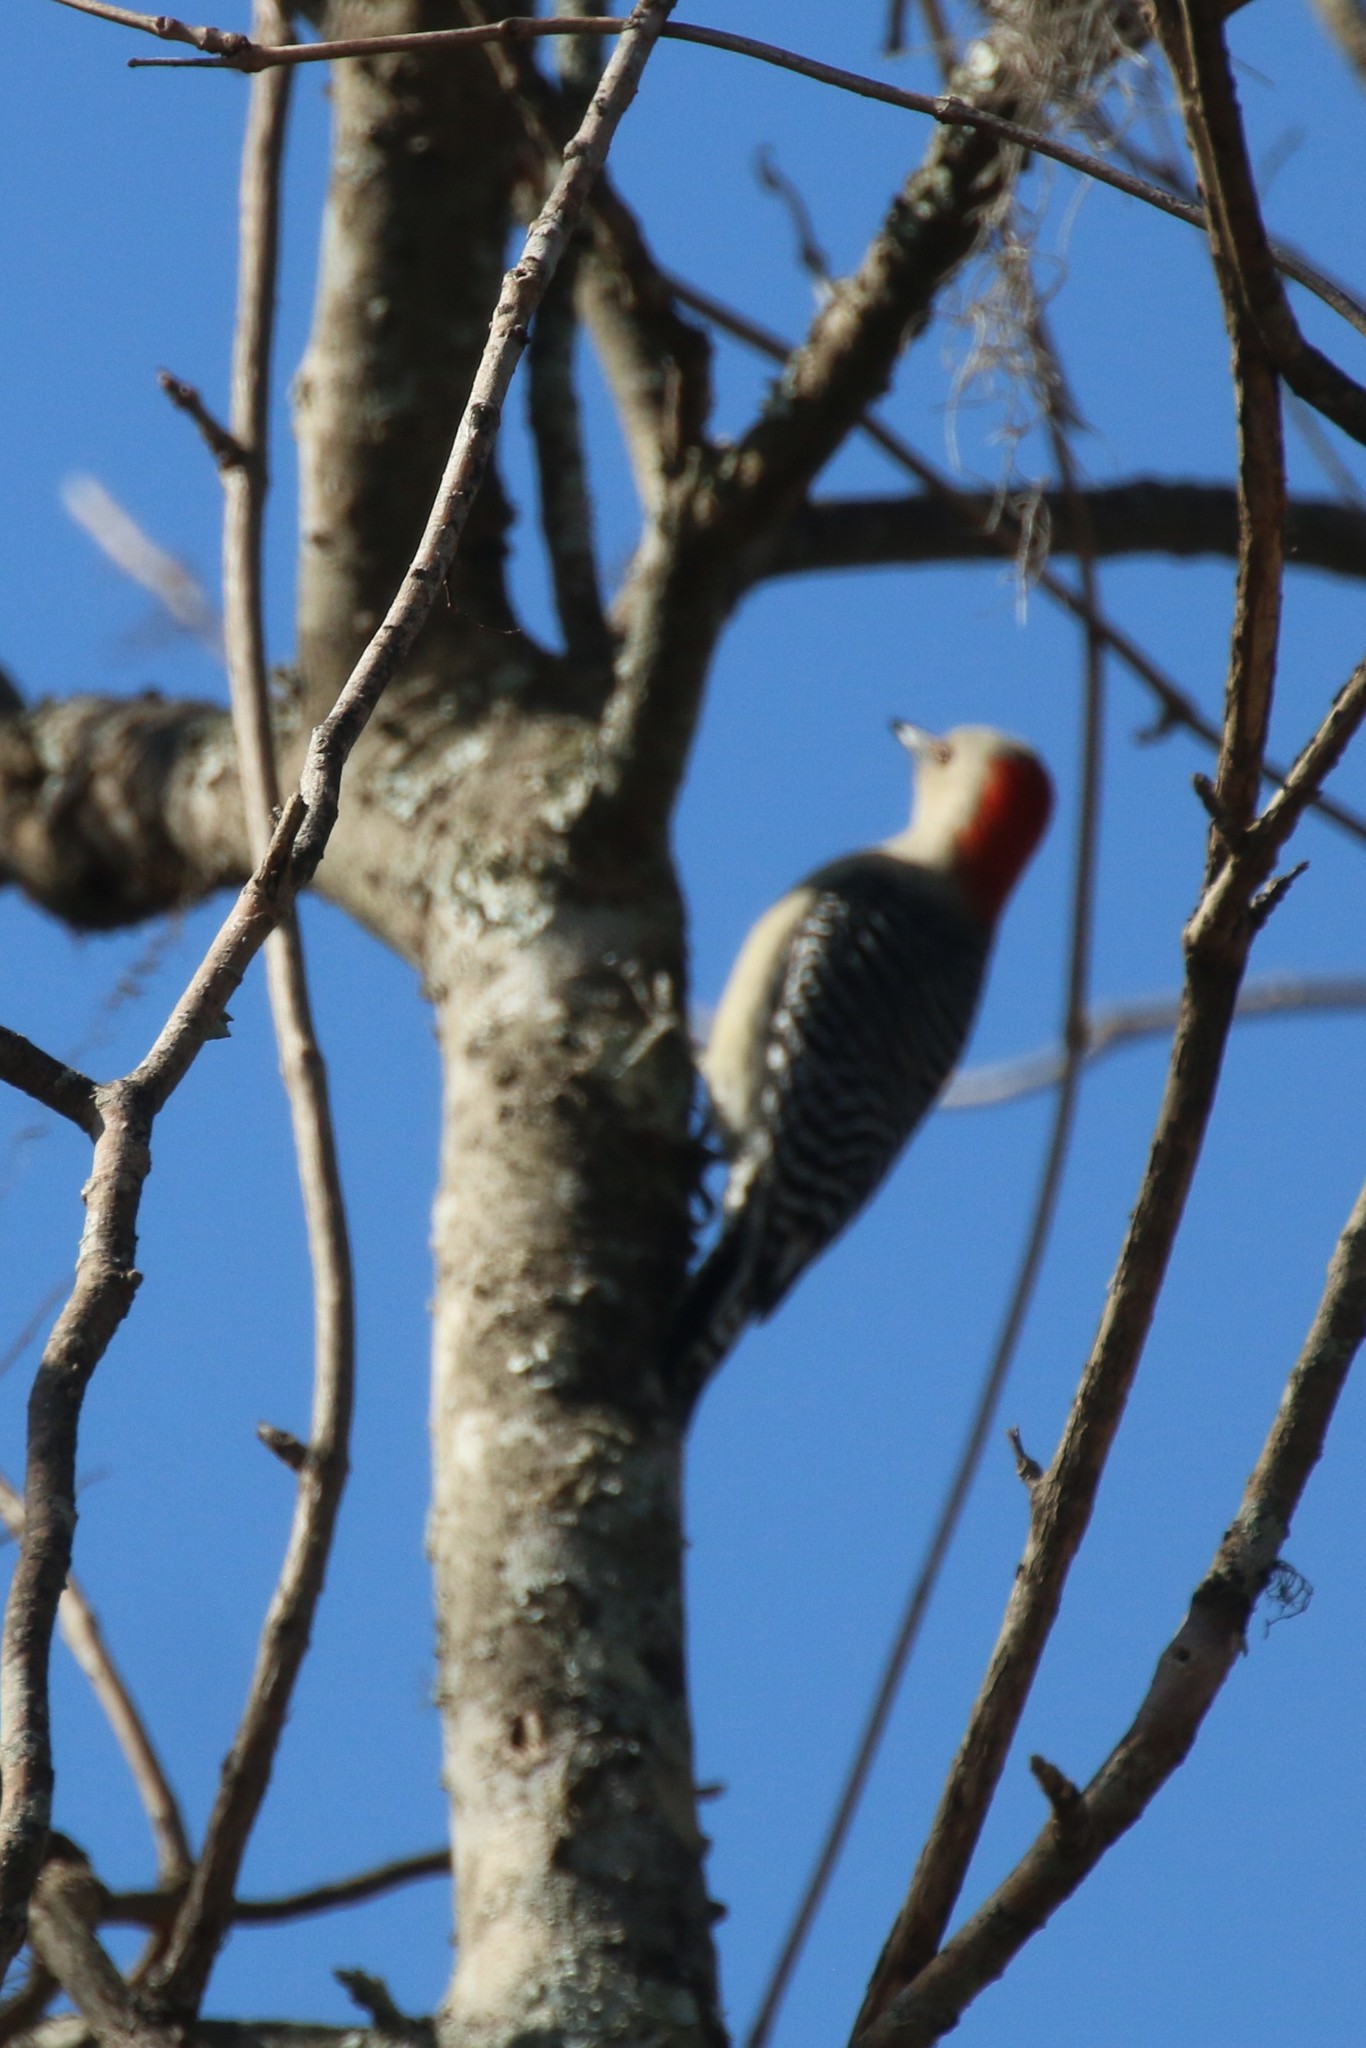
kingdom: Animalia
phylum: Chordata
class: Aves
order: Piciformes
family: Picidae
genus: Melanerpes
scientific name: Melanerpes carolinus
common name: Red-bellied woodpecker
